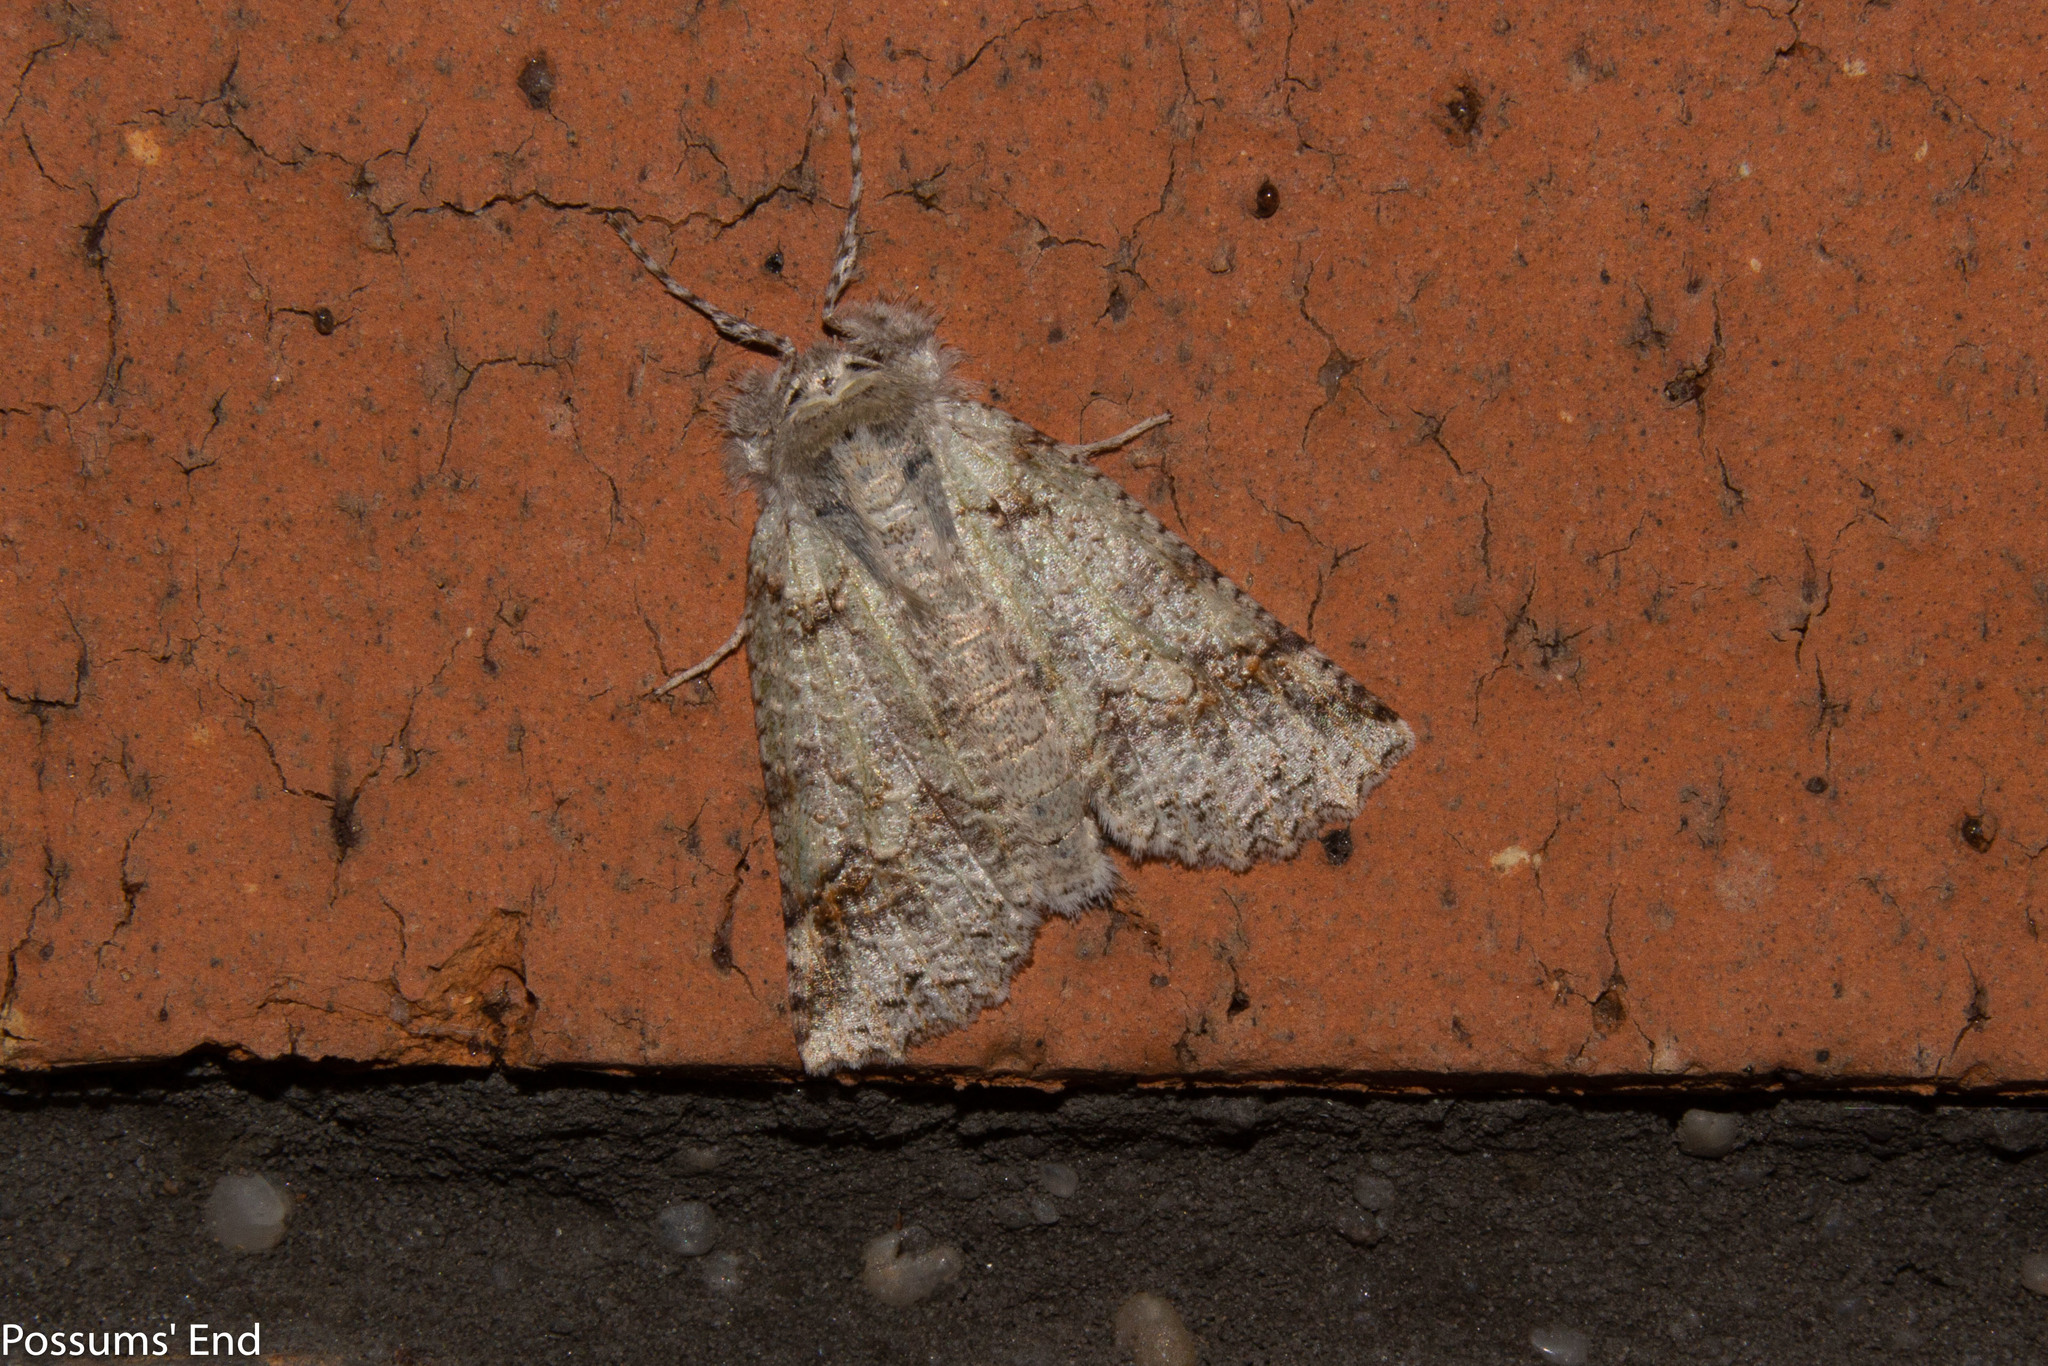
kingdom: Animalia
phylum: Arthropoda
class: Insecta
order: Lepidoptera
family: Geometridae
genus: Declana
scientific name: Declana floccosa
